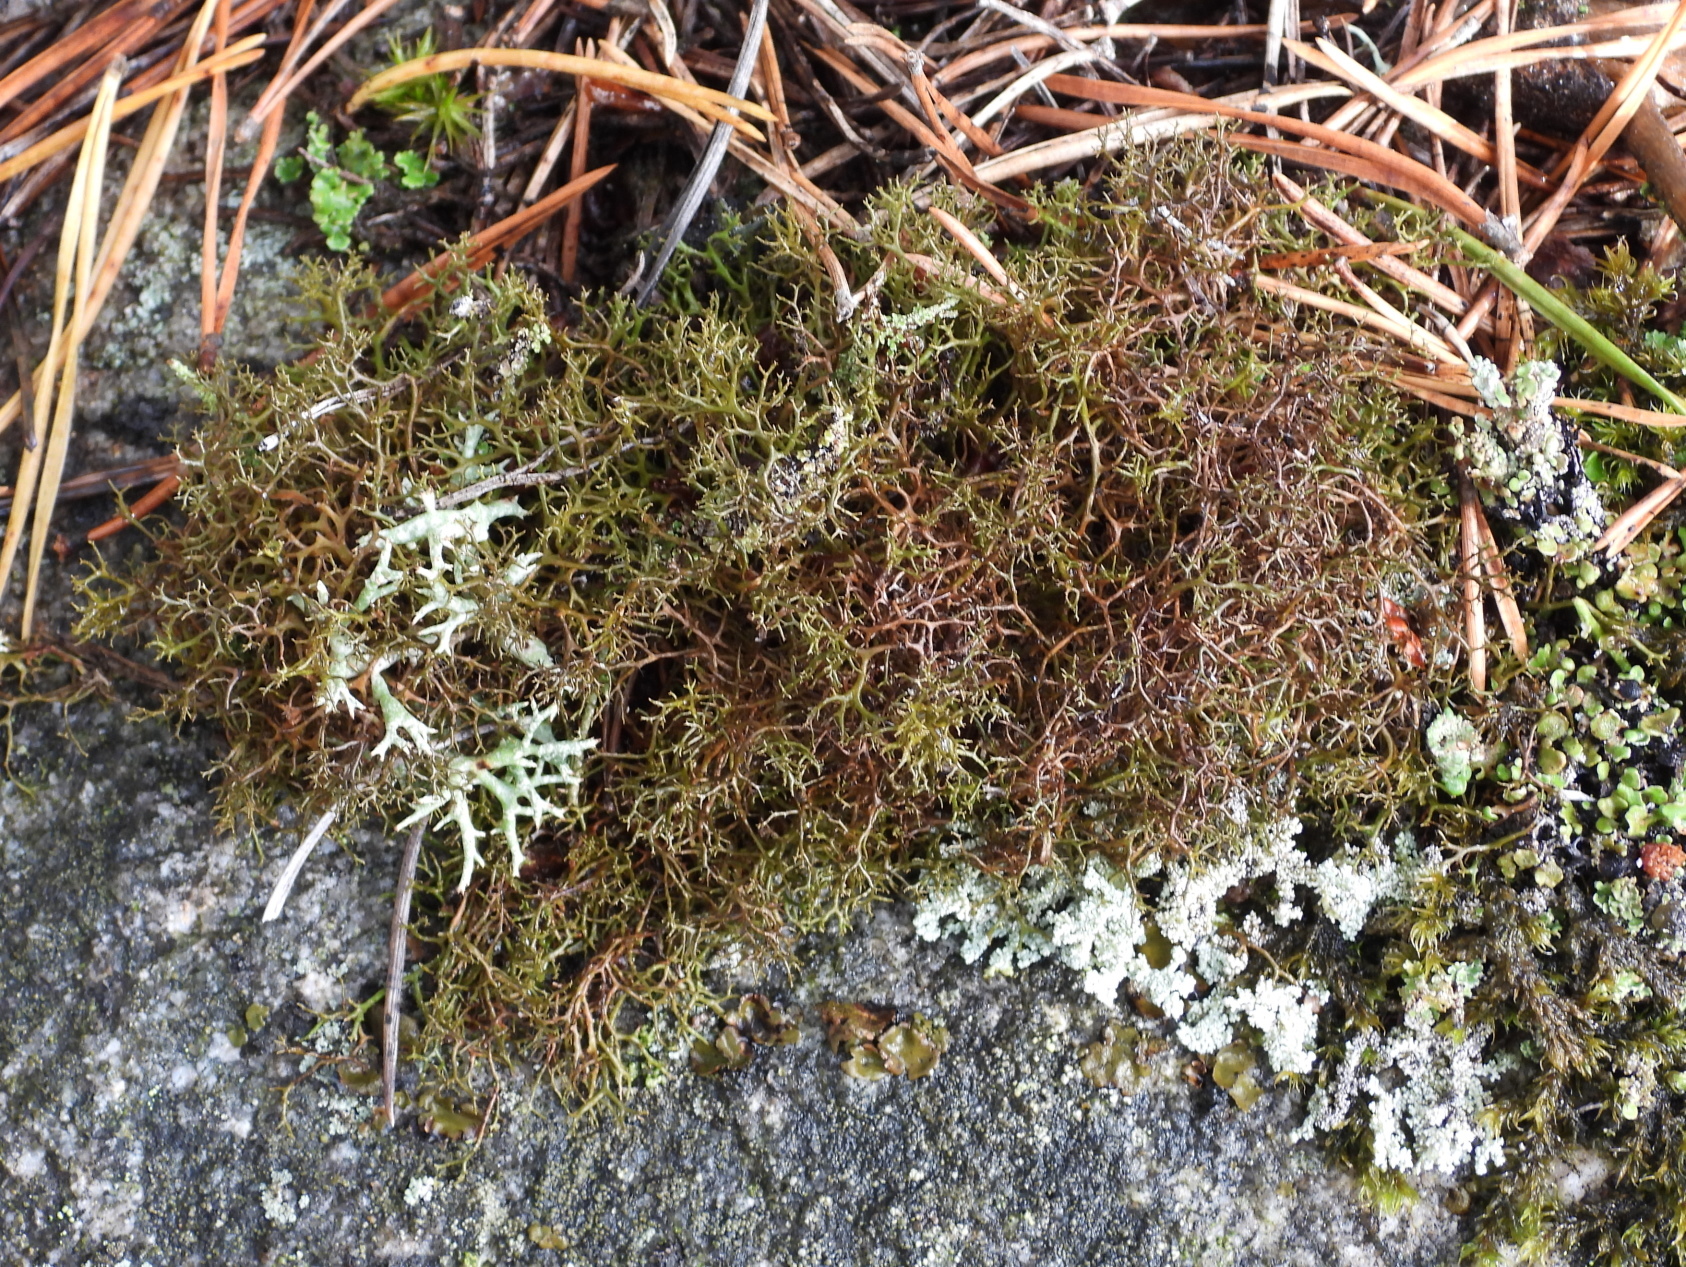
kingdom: Fungi
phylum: Ascomycota
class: Lecanoromycetes
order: Lecanorales
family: Parmeliaceae
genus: Cetraria
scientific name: Cetraria muricata
